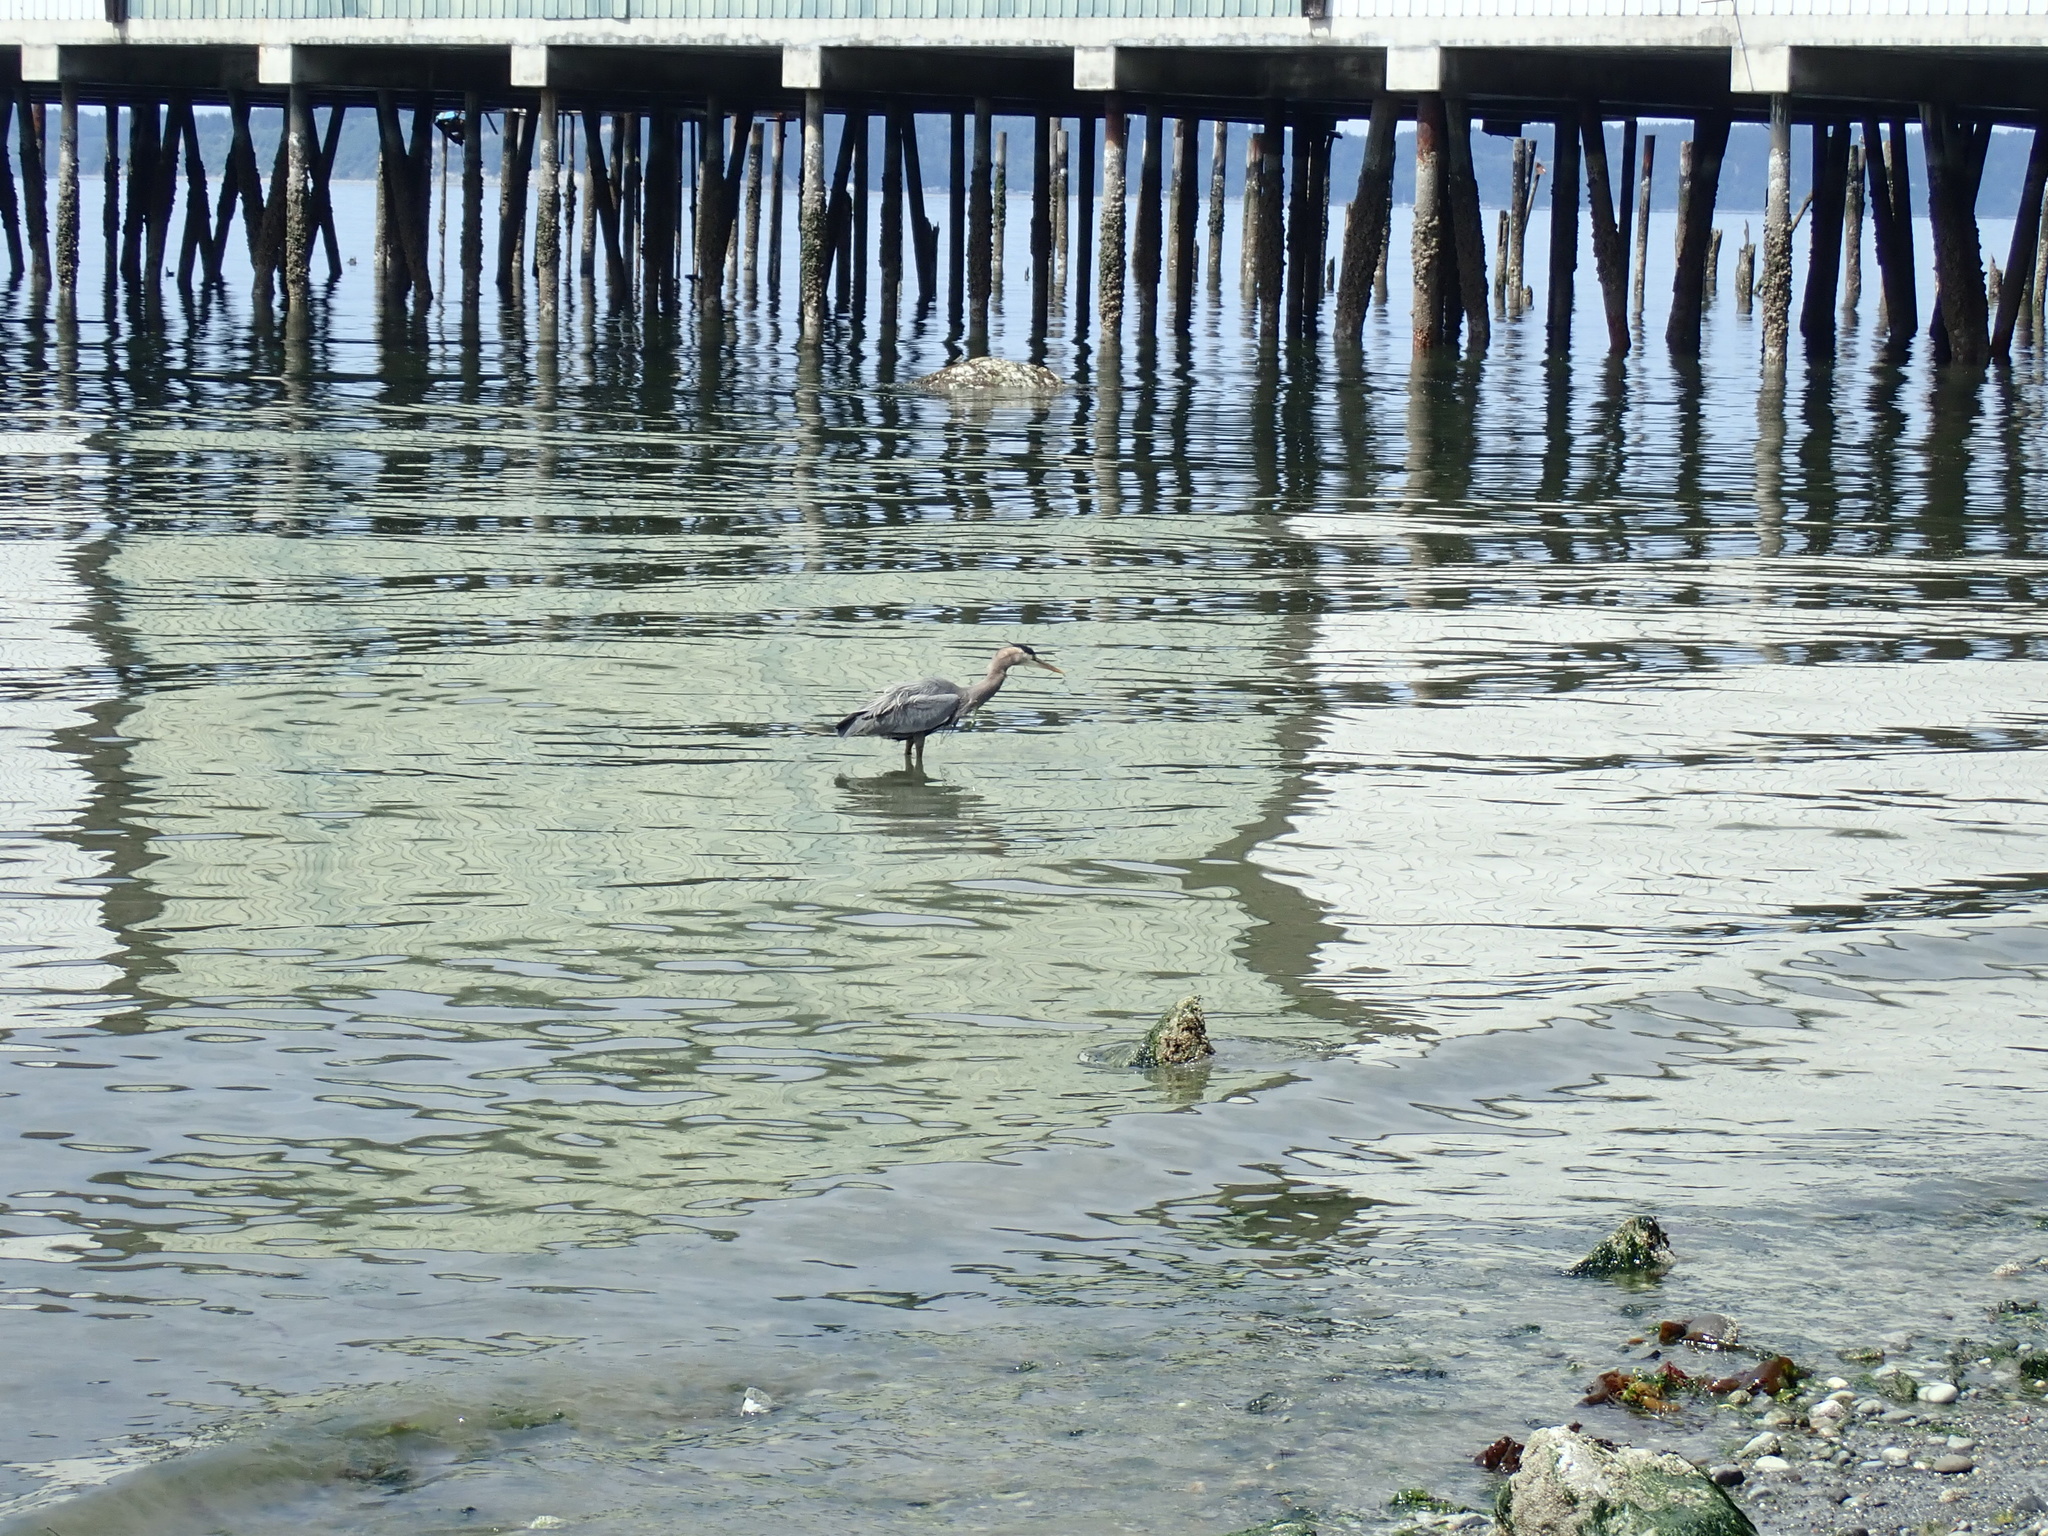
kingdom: Animalia
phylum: Chordata
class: Aves
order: Pelecaniformes
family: Ardeidae
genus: Ardea
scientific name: Ardea herodias
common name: Great blue heron
